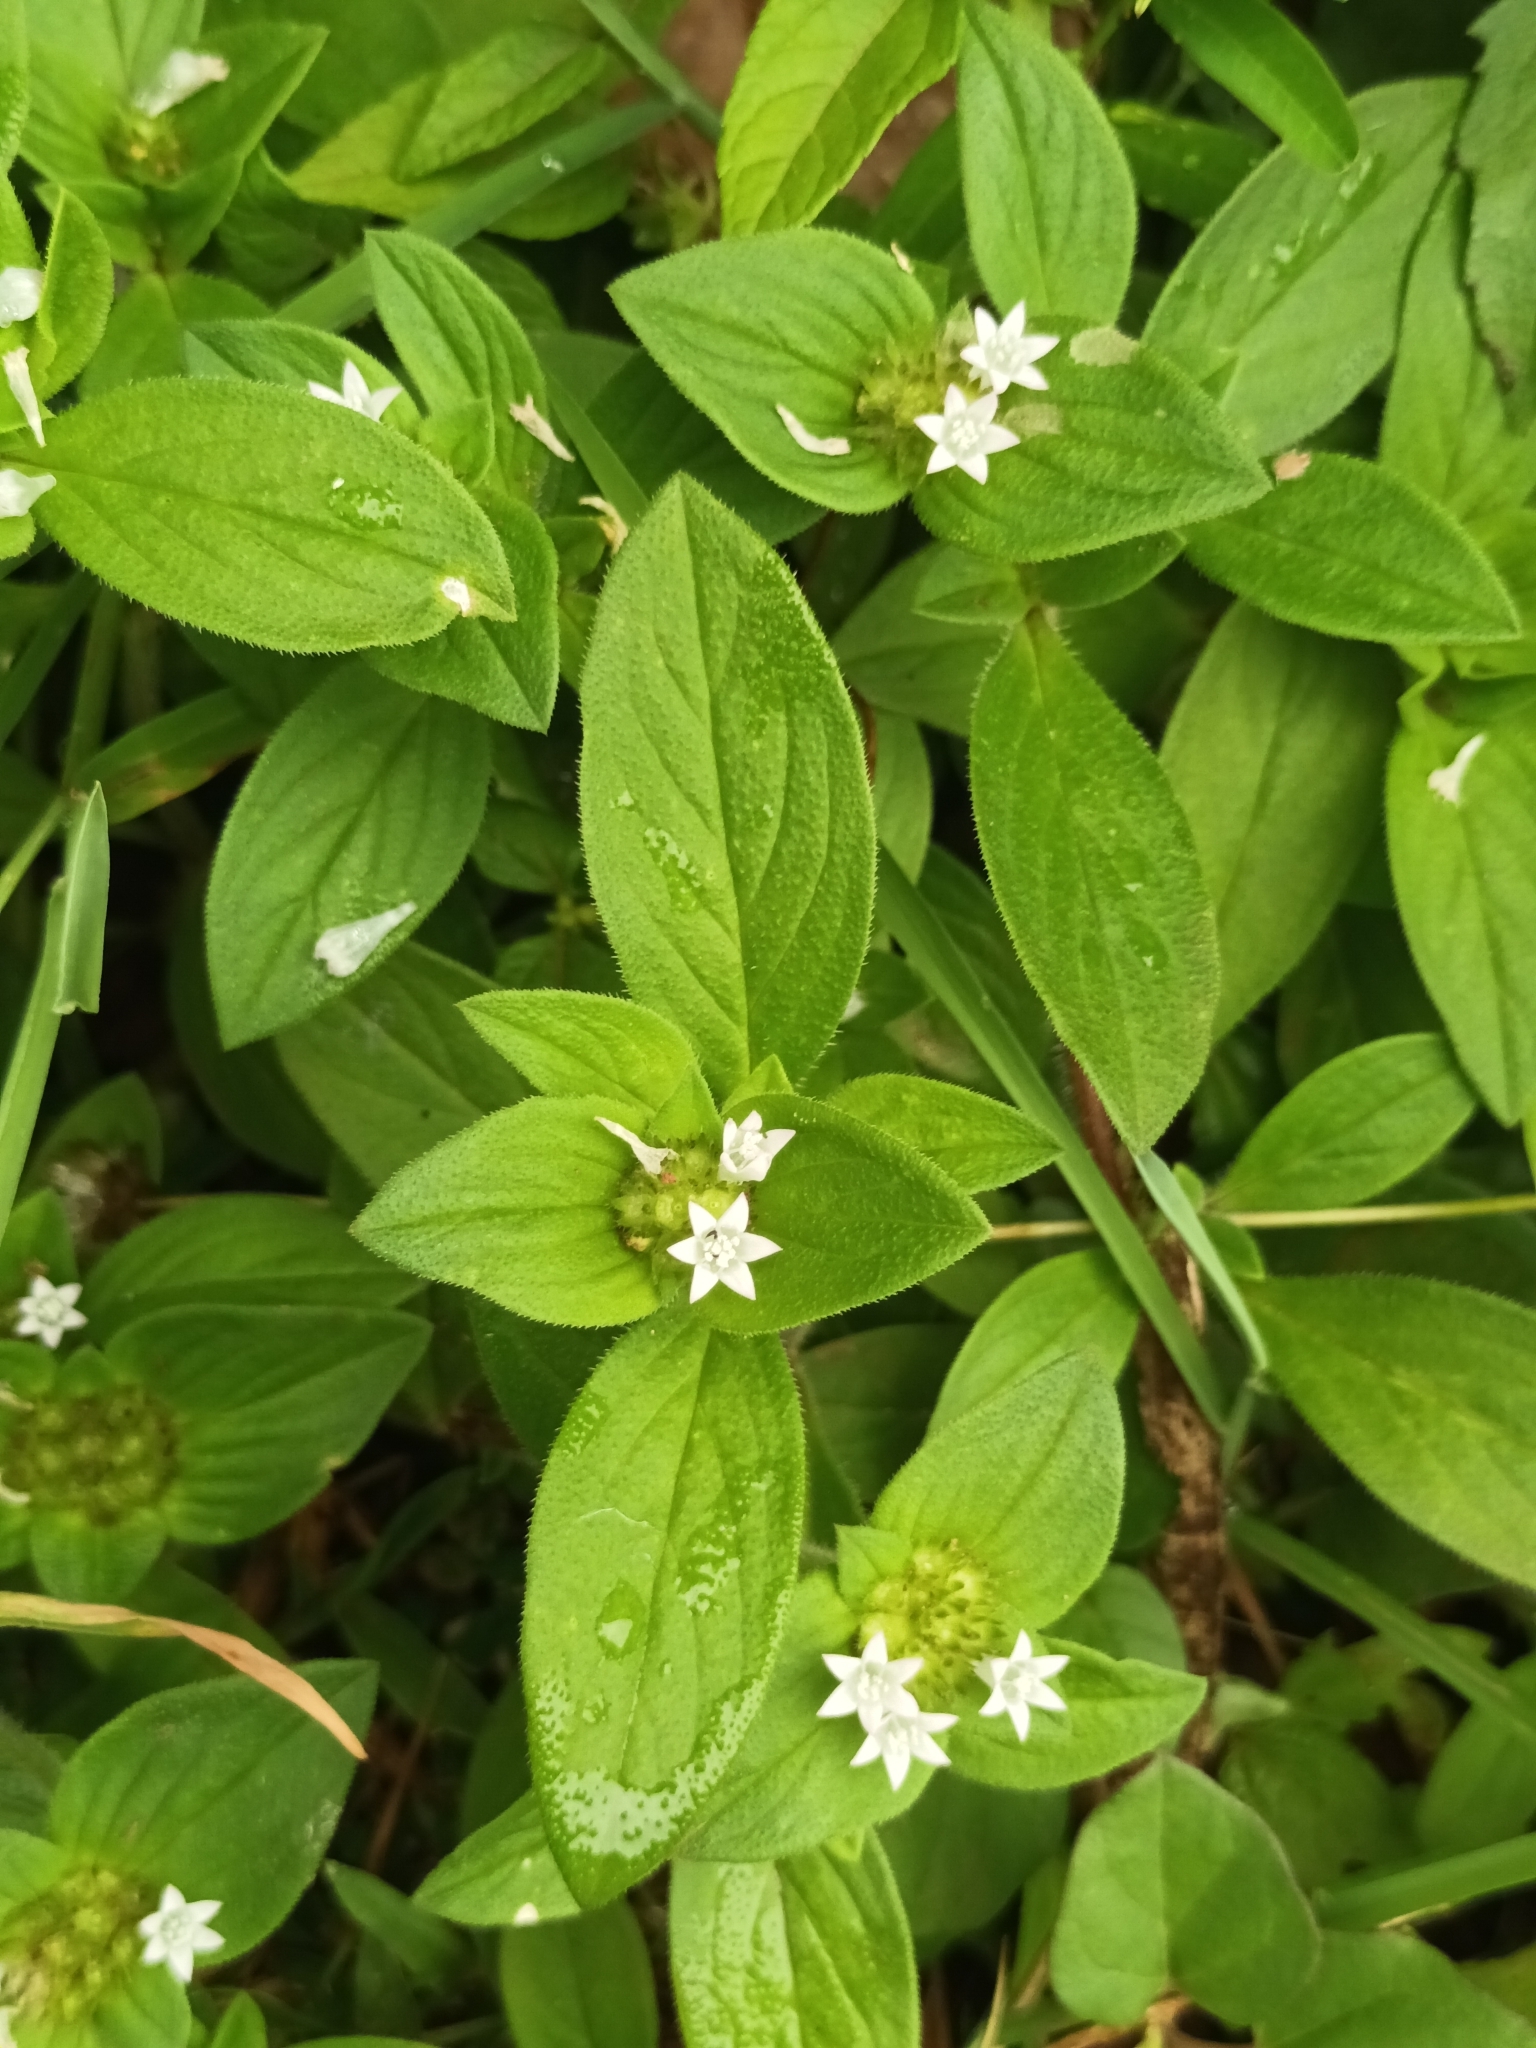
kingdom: Plantae
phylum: Tracheophyta
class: Magnoliopsida
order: Gentianales
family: Rubiaceae
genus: Richardia
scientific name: Richardia scabra
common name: Rough mexican clover
